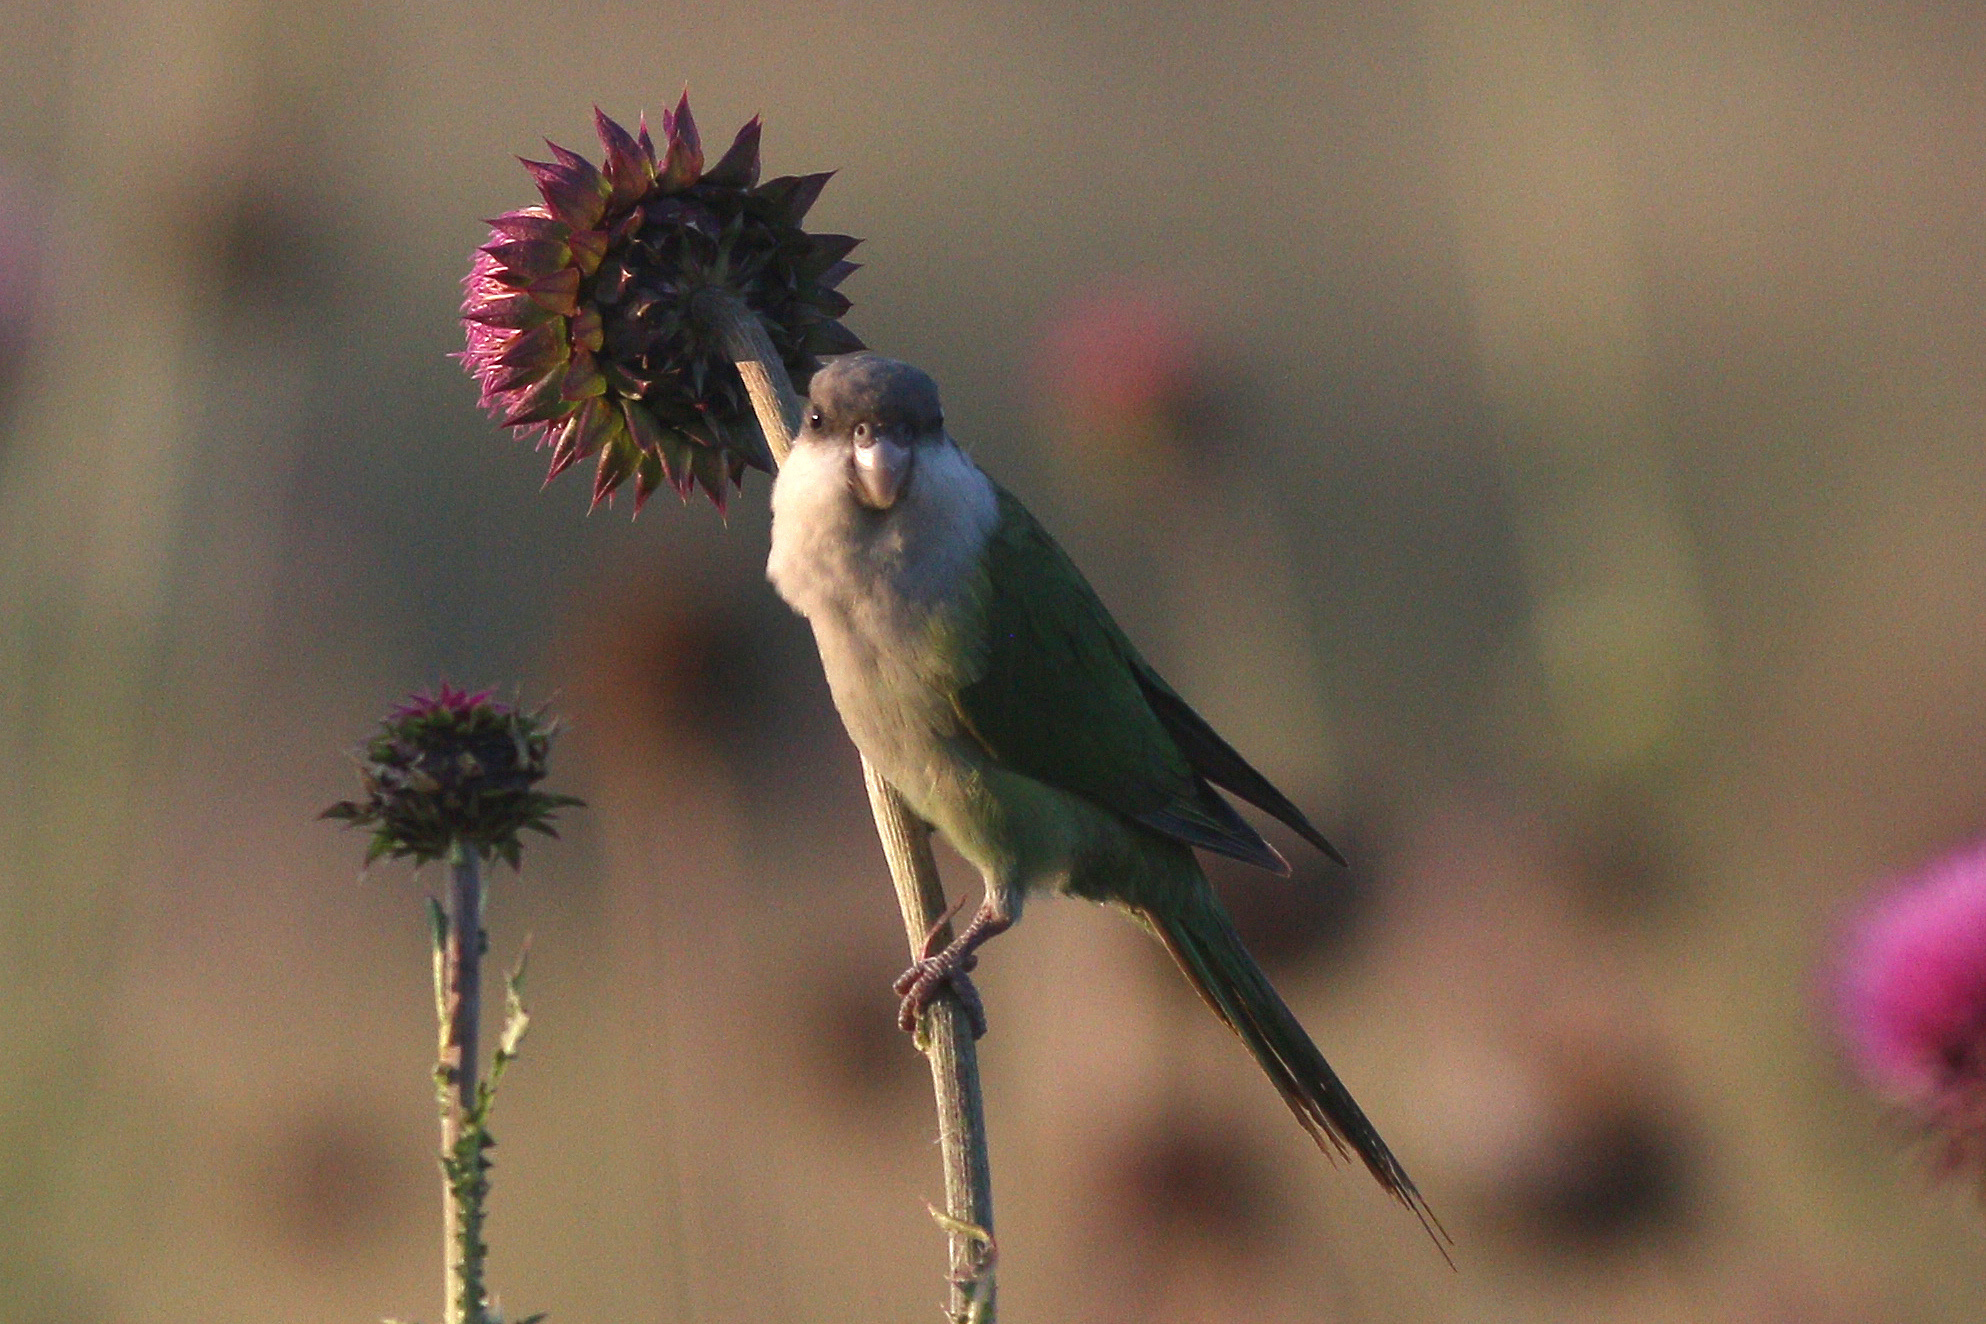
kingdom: Animalia
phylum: Chordata
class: Aves
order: Psittaciformes
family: Psittacidae
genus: Psilopsiagon
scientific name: Psilopsiagon aymara
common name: Grey-hooded parakeet
